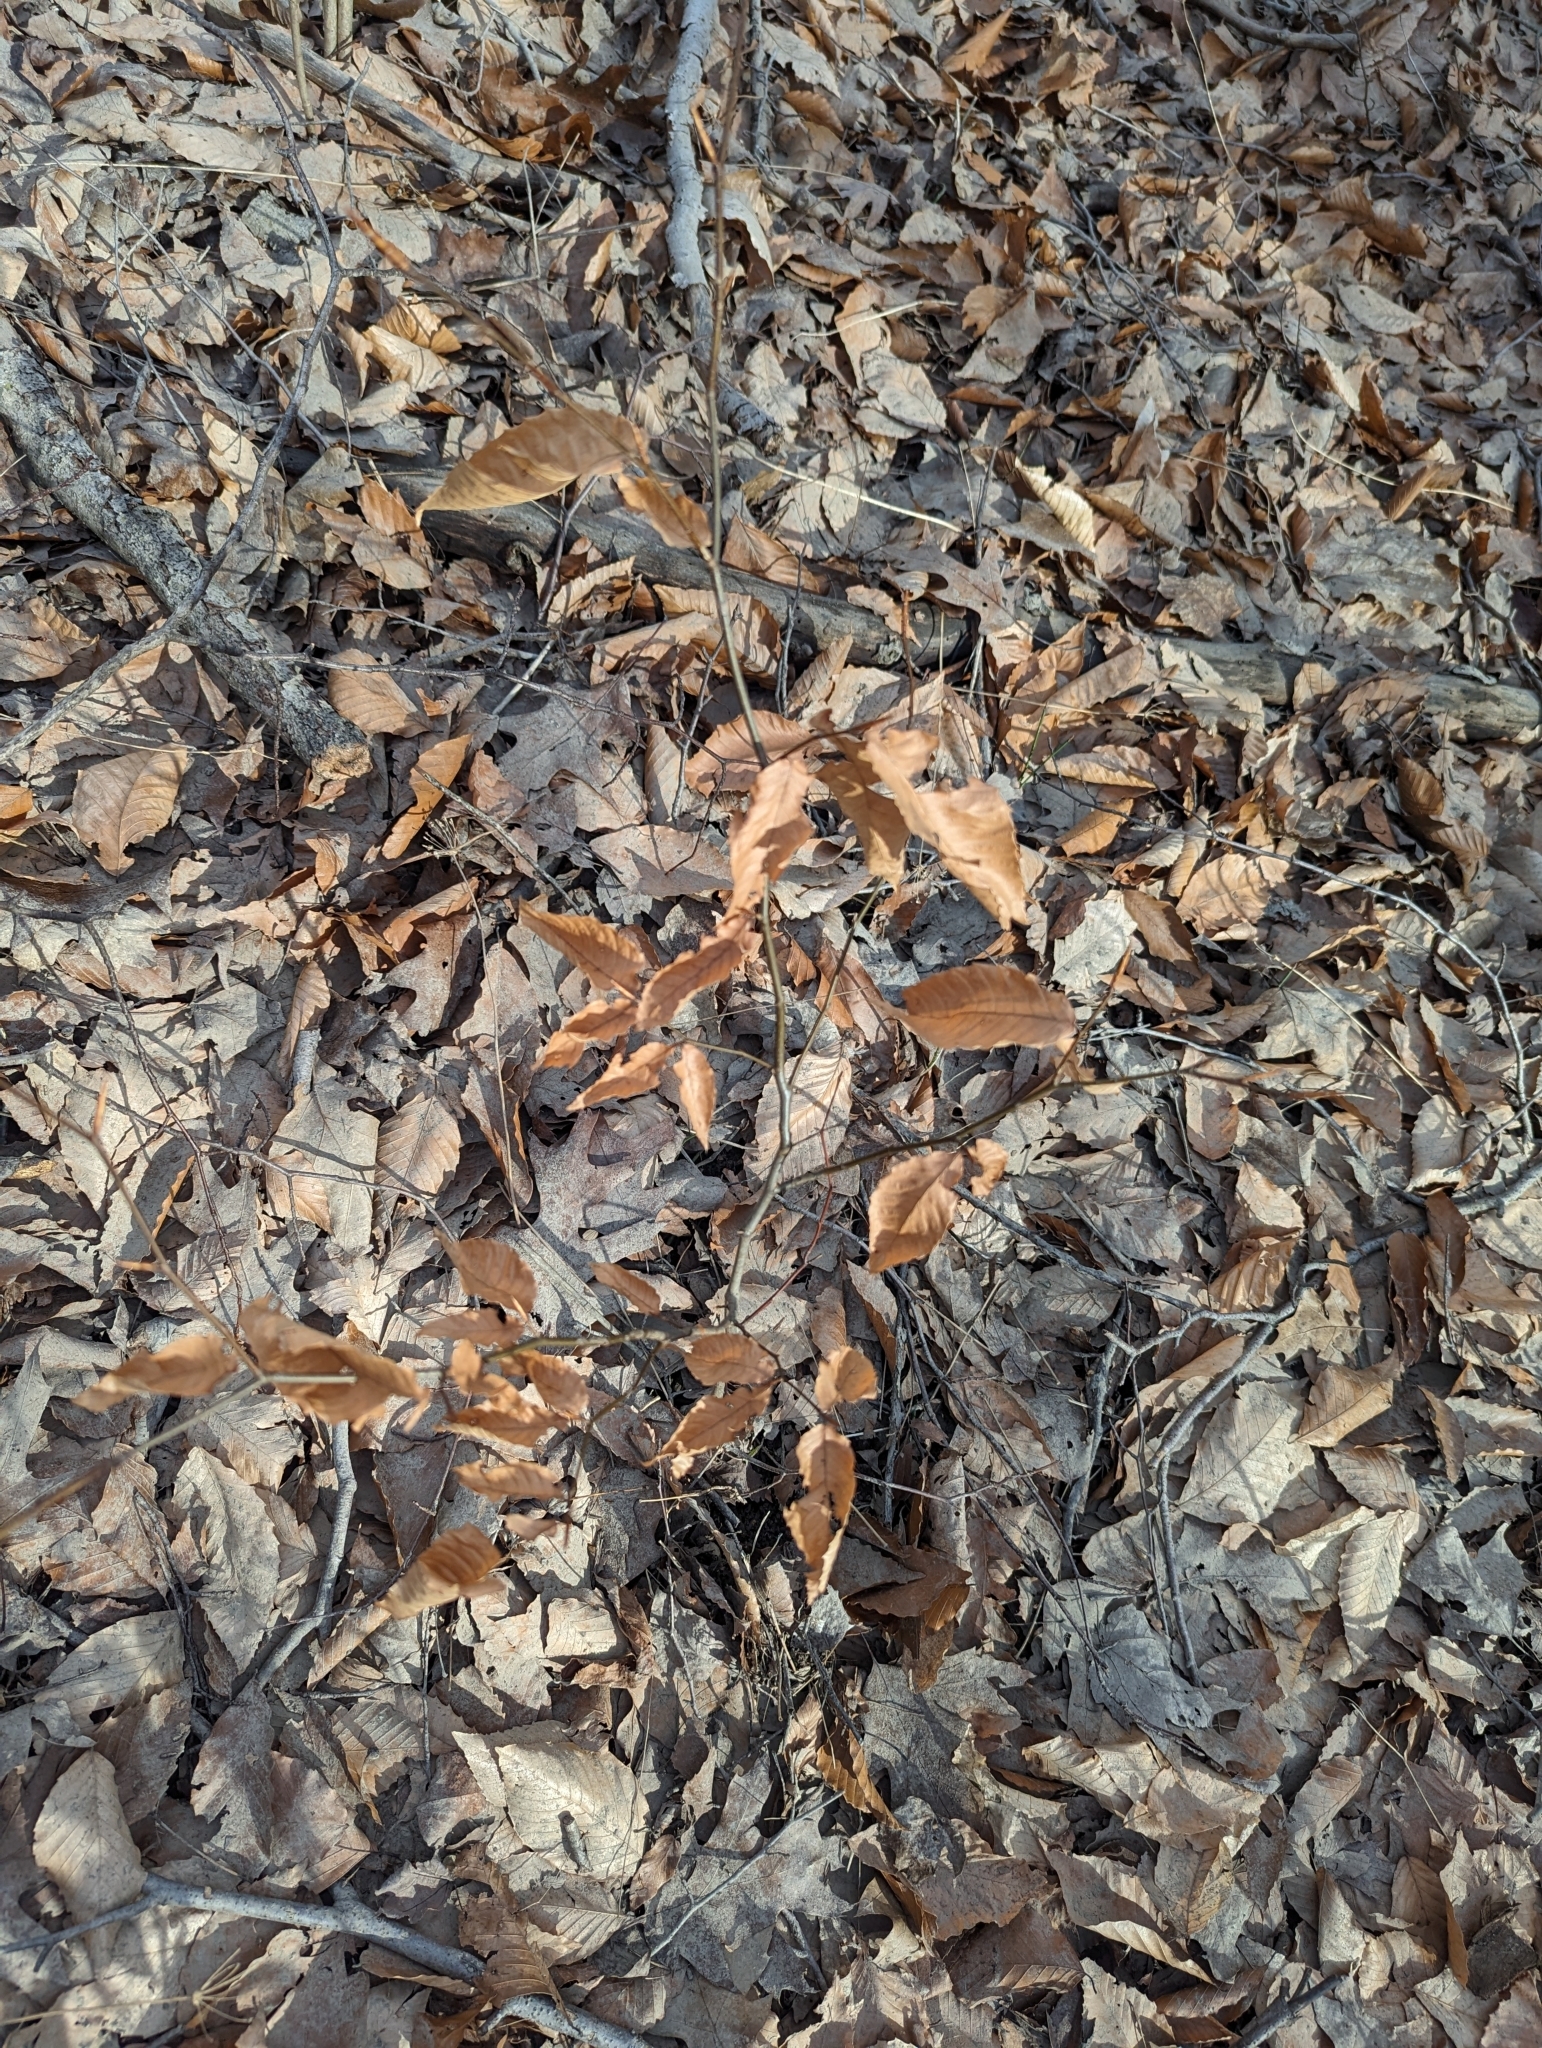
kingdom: Plantae
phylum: Tracheophyta
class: Magnoliopsida
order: Fagales
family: Fagaceae
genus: Fagus
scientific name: Fagus grandifolia
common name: American beech
